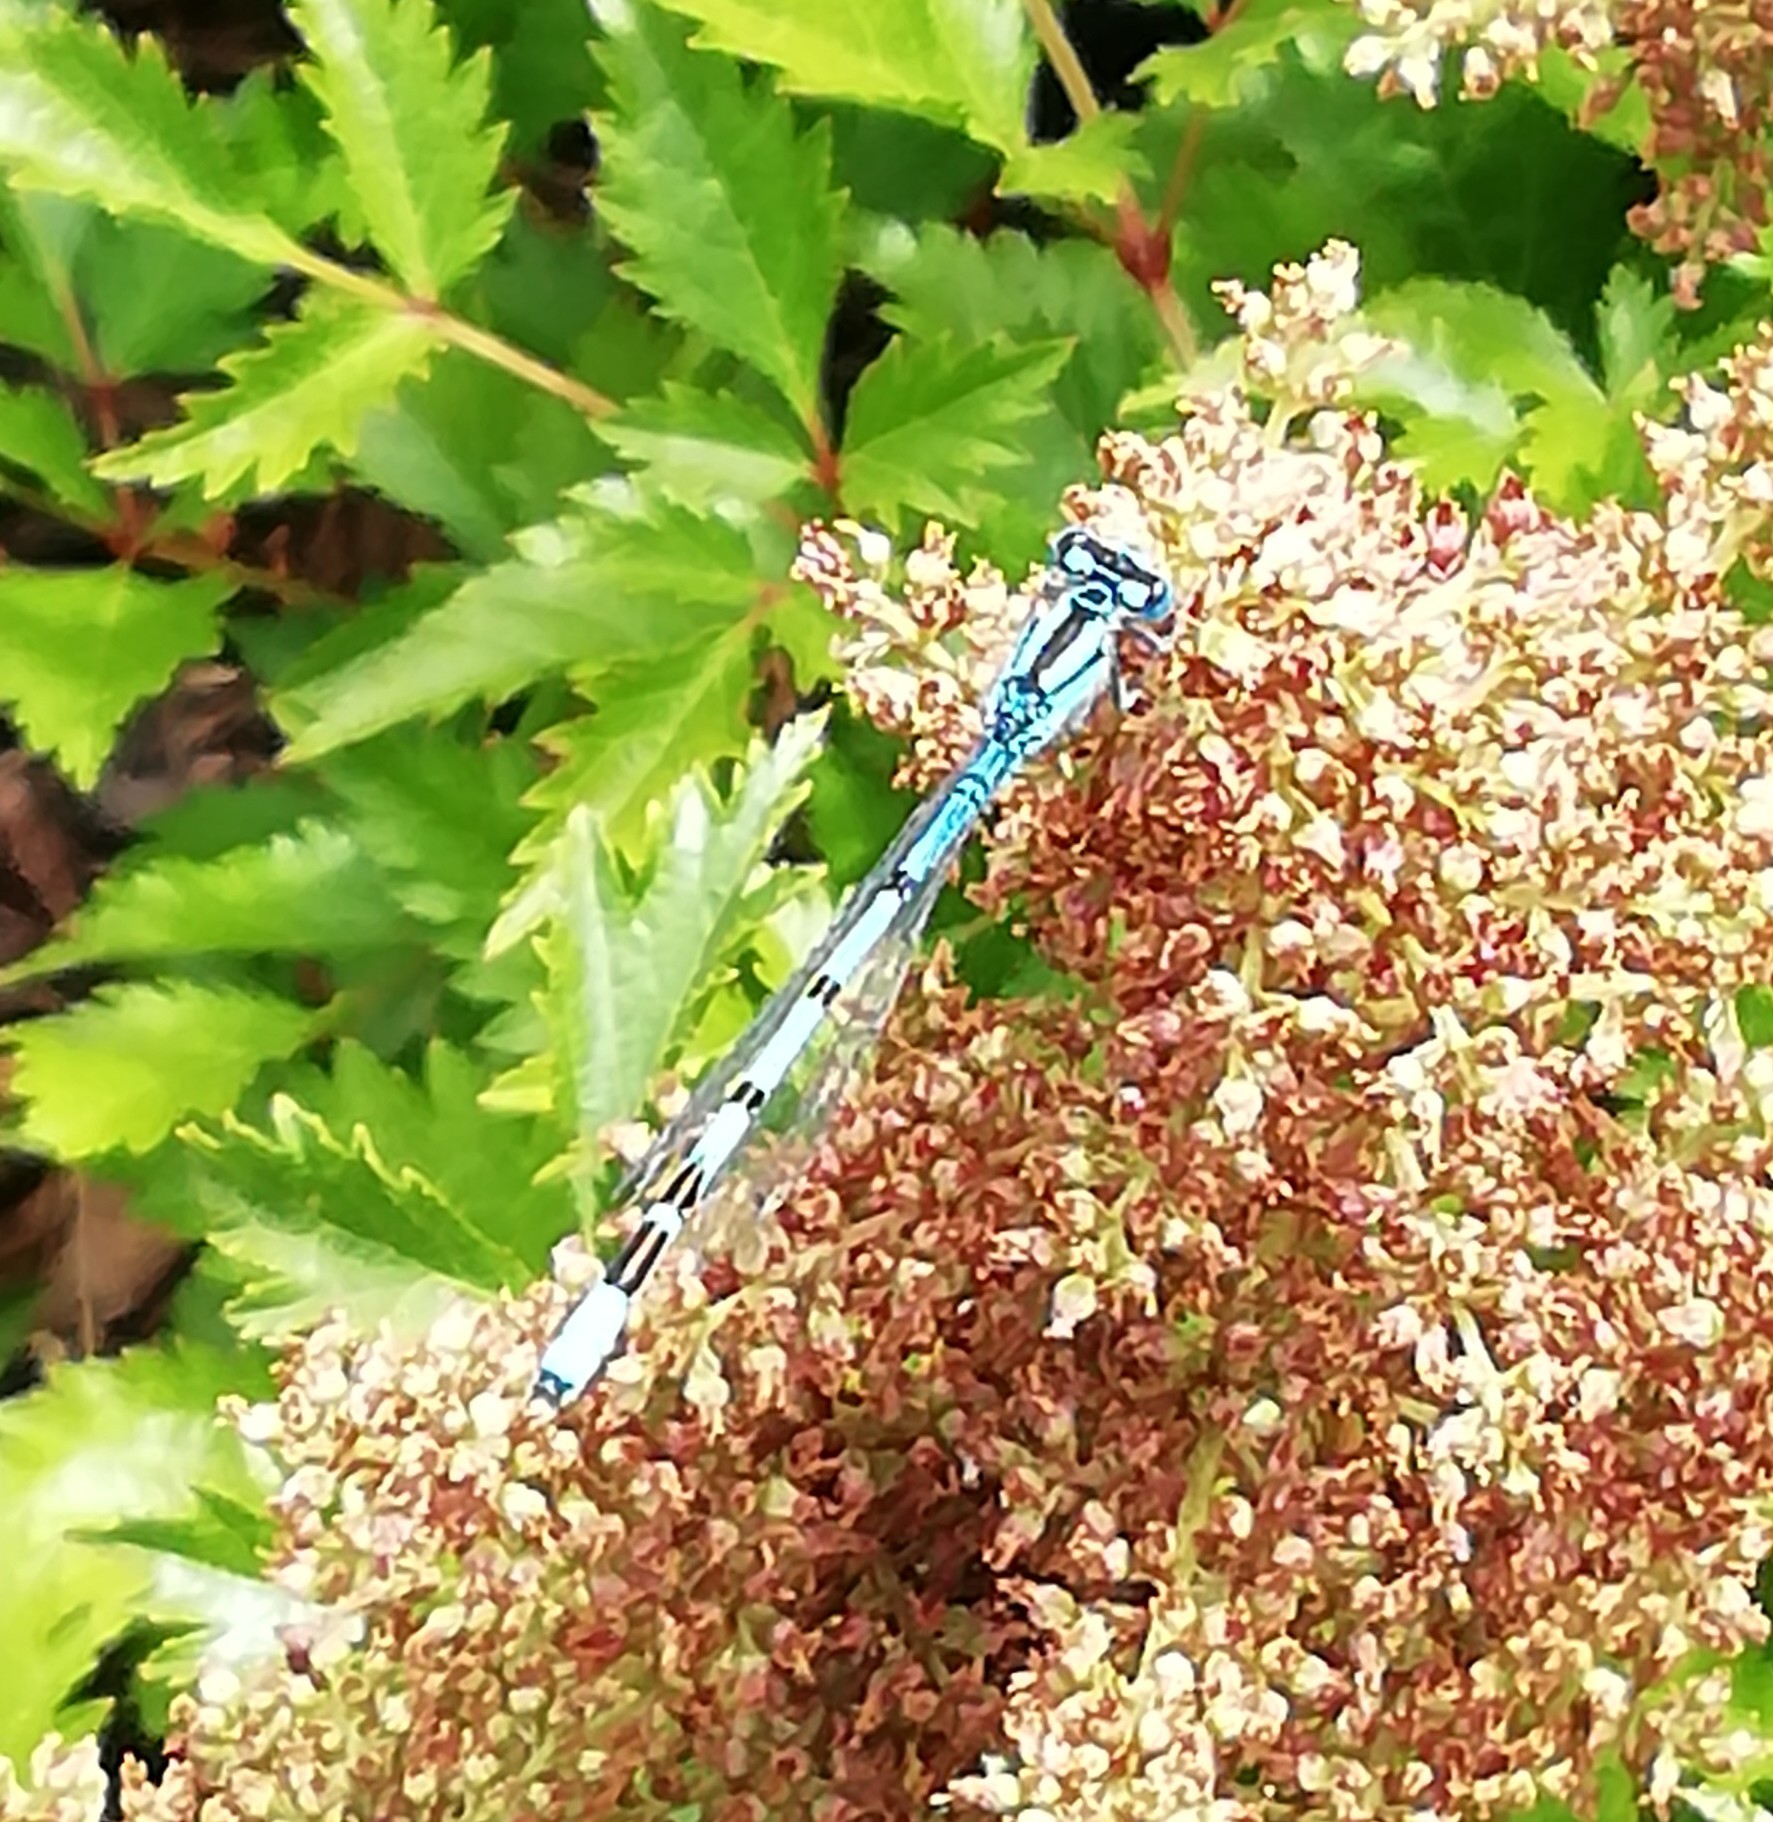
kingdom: Animalia
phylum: Arthropoda
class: Insecta
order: Odonata
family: Coenagrionidae
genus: Enallagma
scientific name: Enallagma cyathigerum
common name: Common blue damselfly
